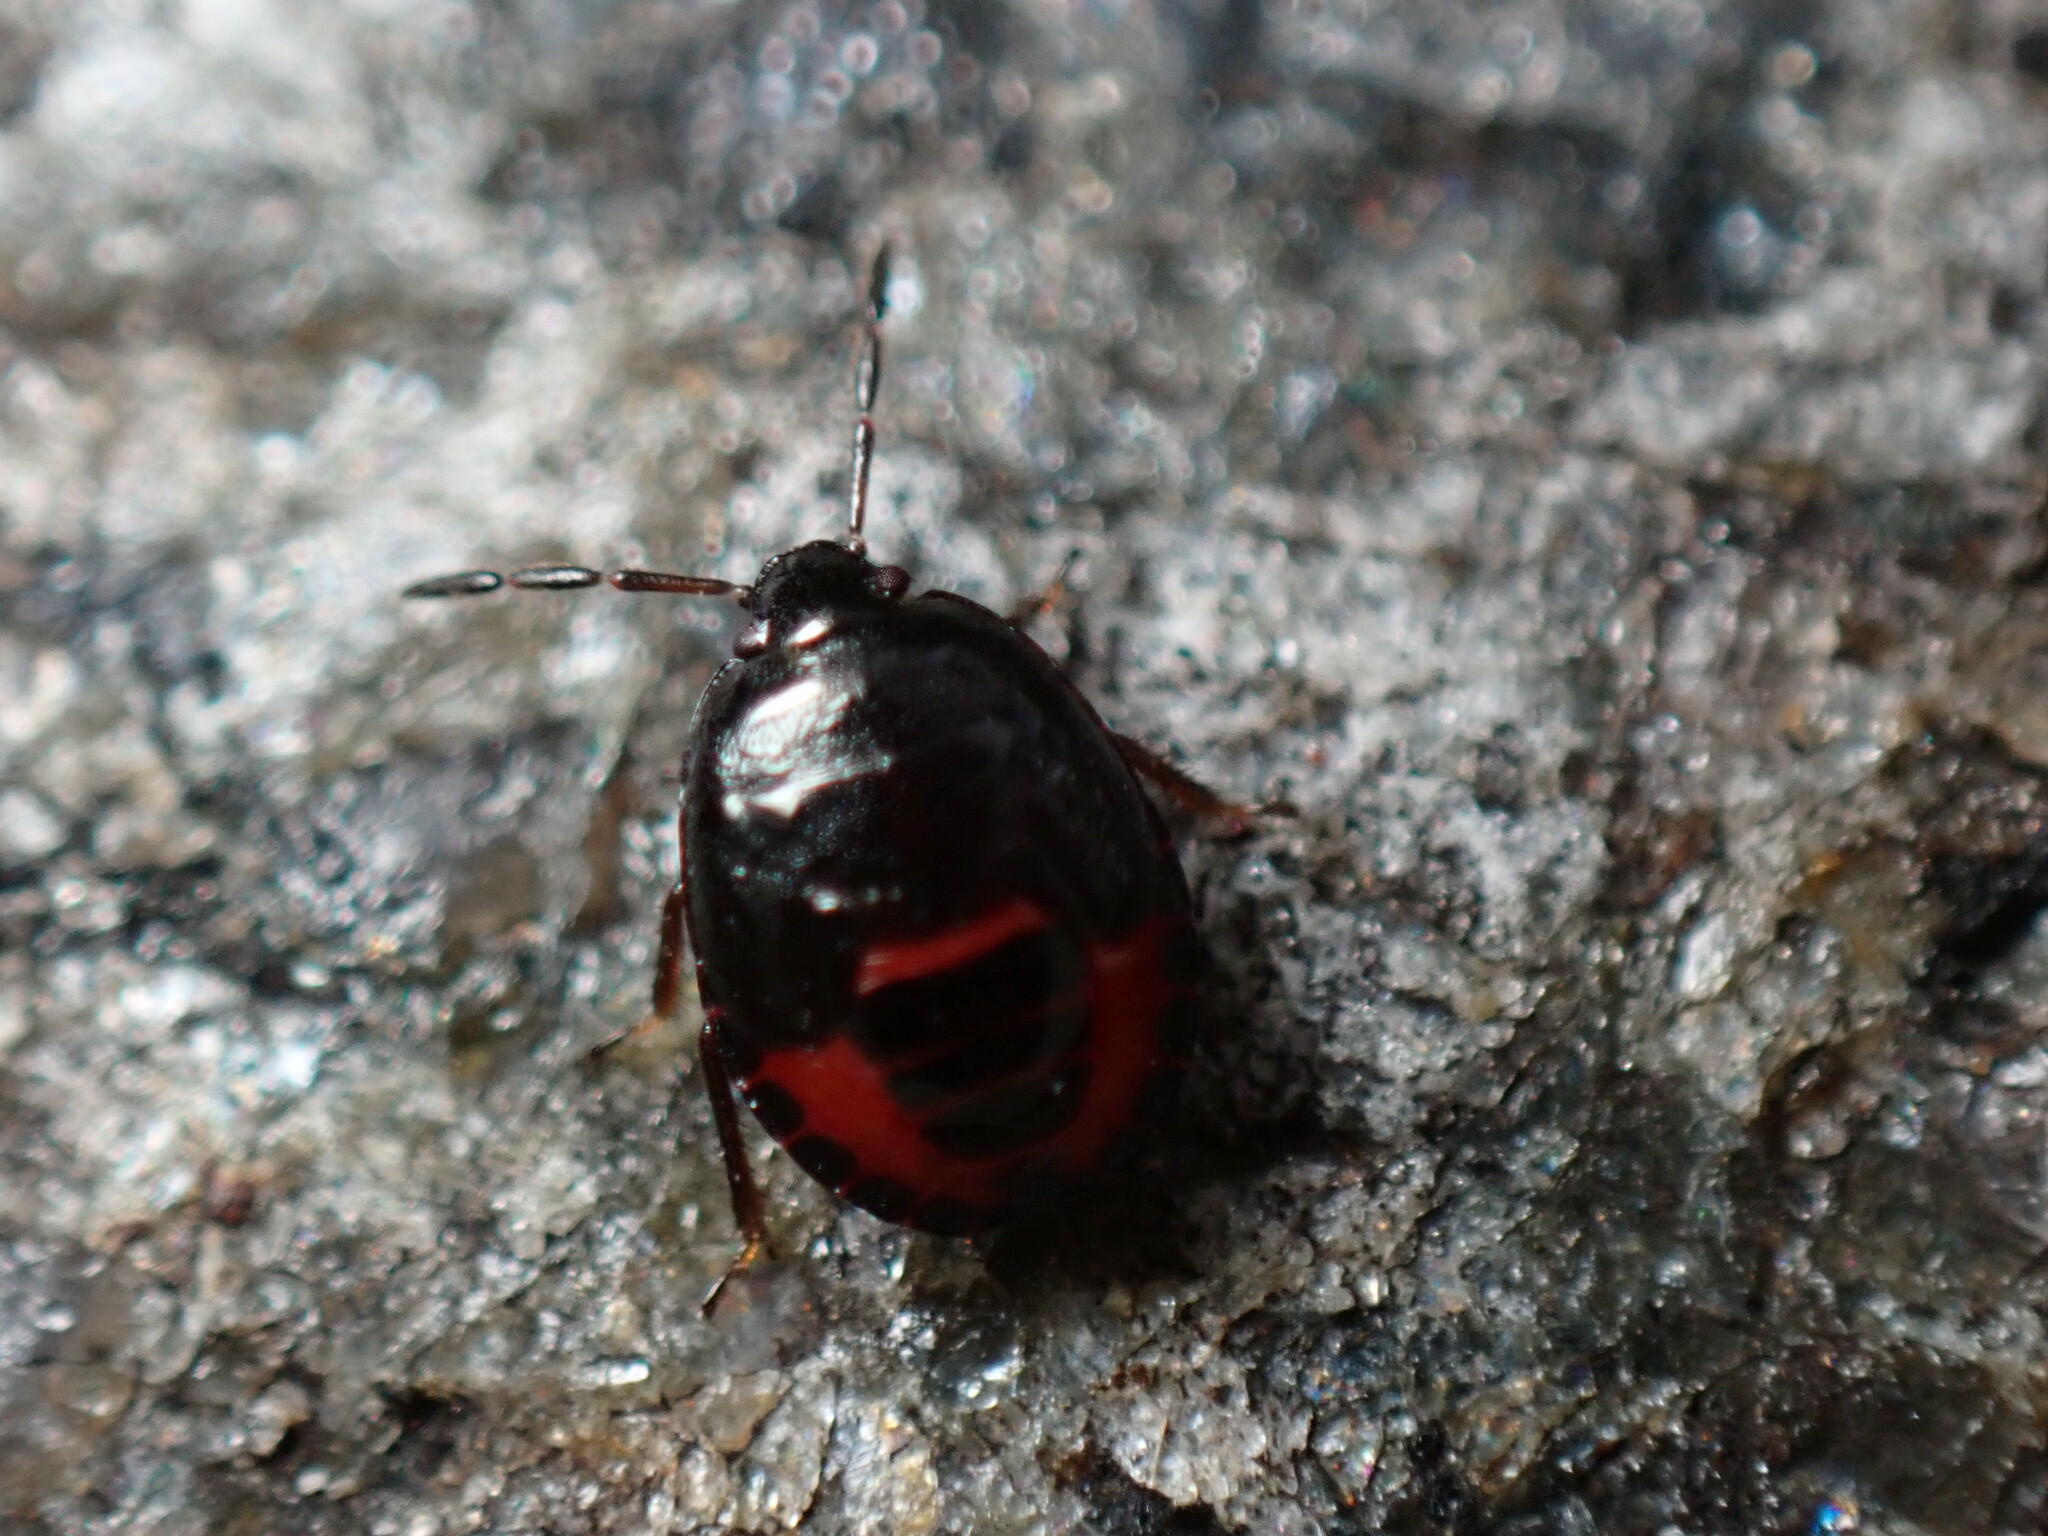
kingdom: Animalia
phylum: Arthropoda
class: Insecta
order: Hemiptera
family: Cydnidae
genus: Sehirus
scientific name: Sehirus cinctus
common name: White-margined burrower bug
